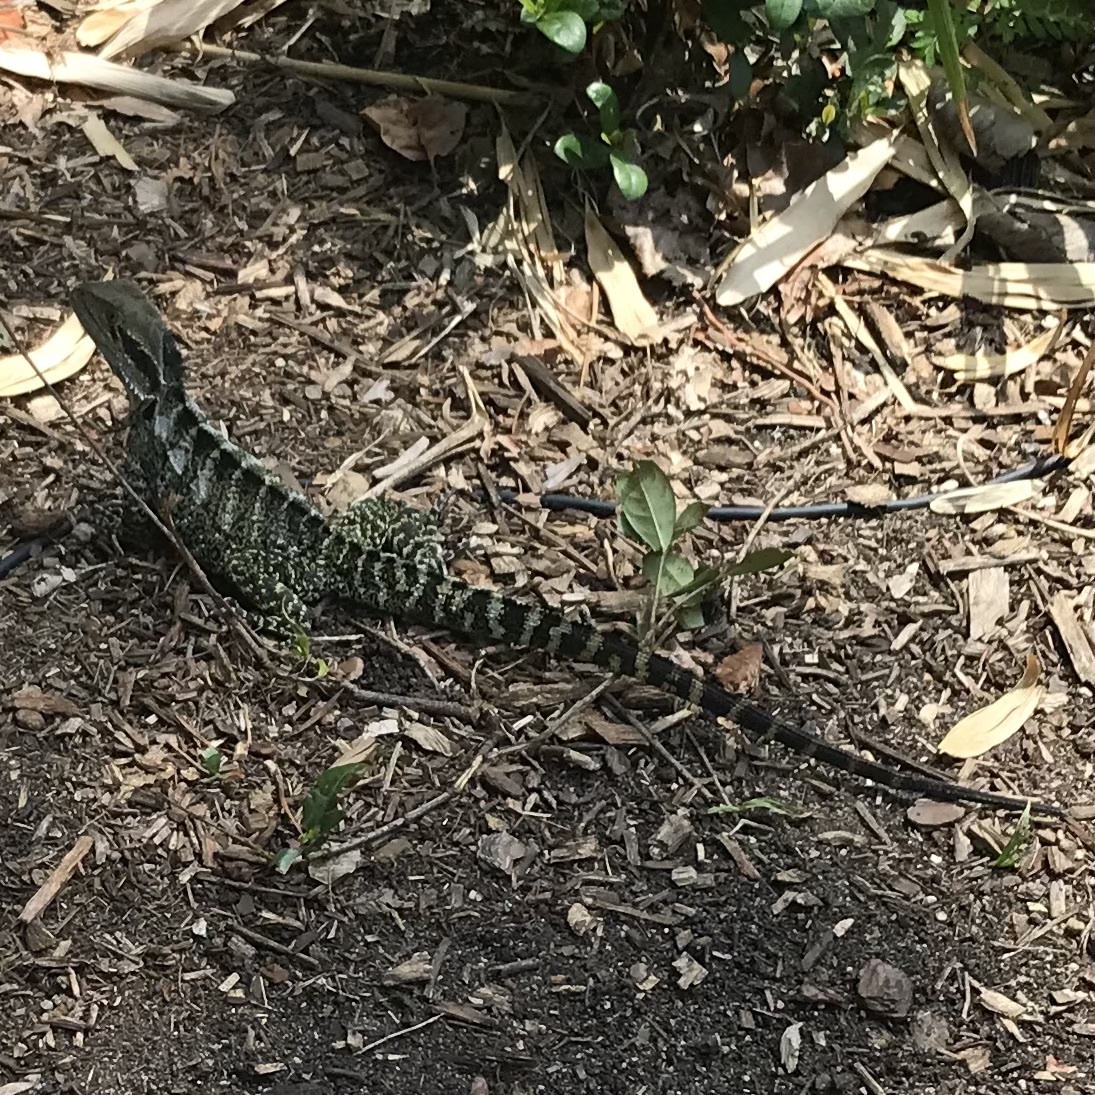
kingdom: Animalia
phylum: Chordata
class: Squamata
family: Agamidae
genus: Intellagama
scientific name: Intellagama lesueurii
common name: Eastern water dragon
